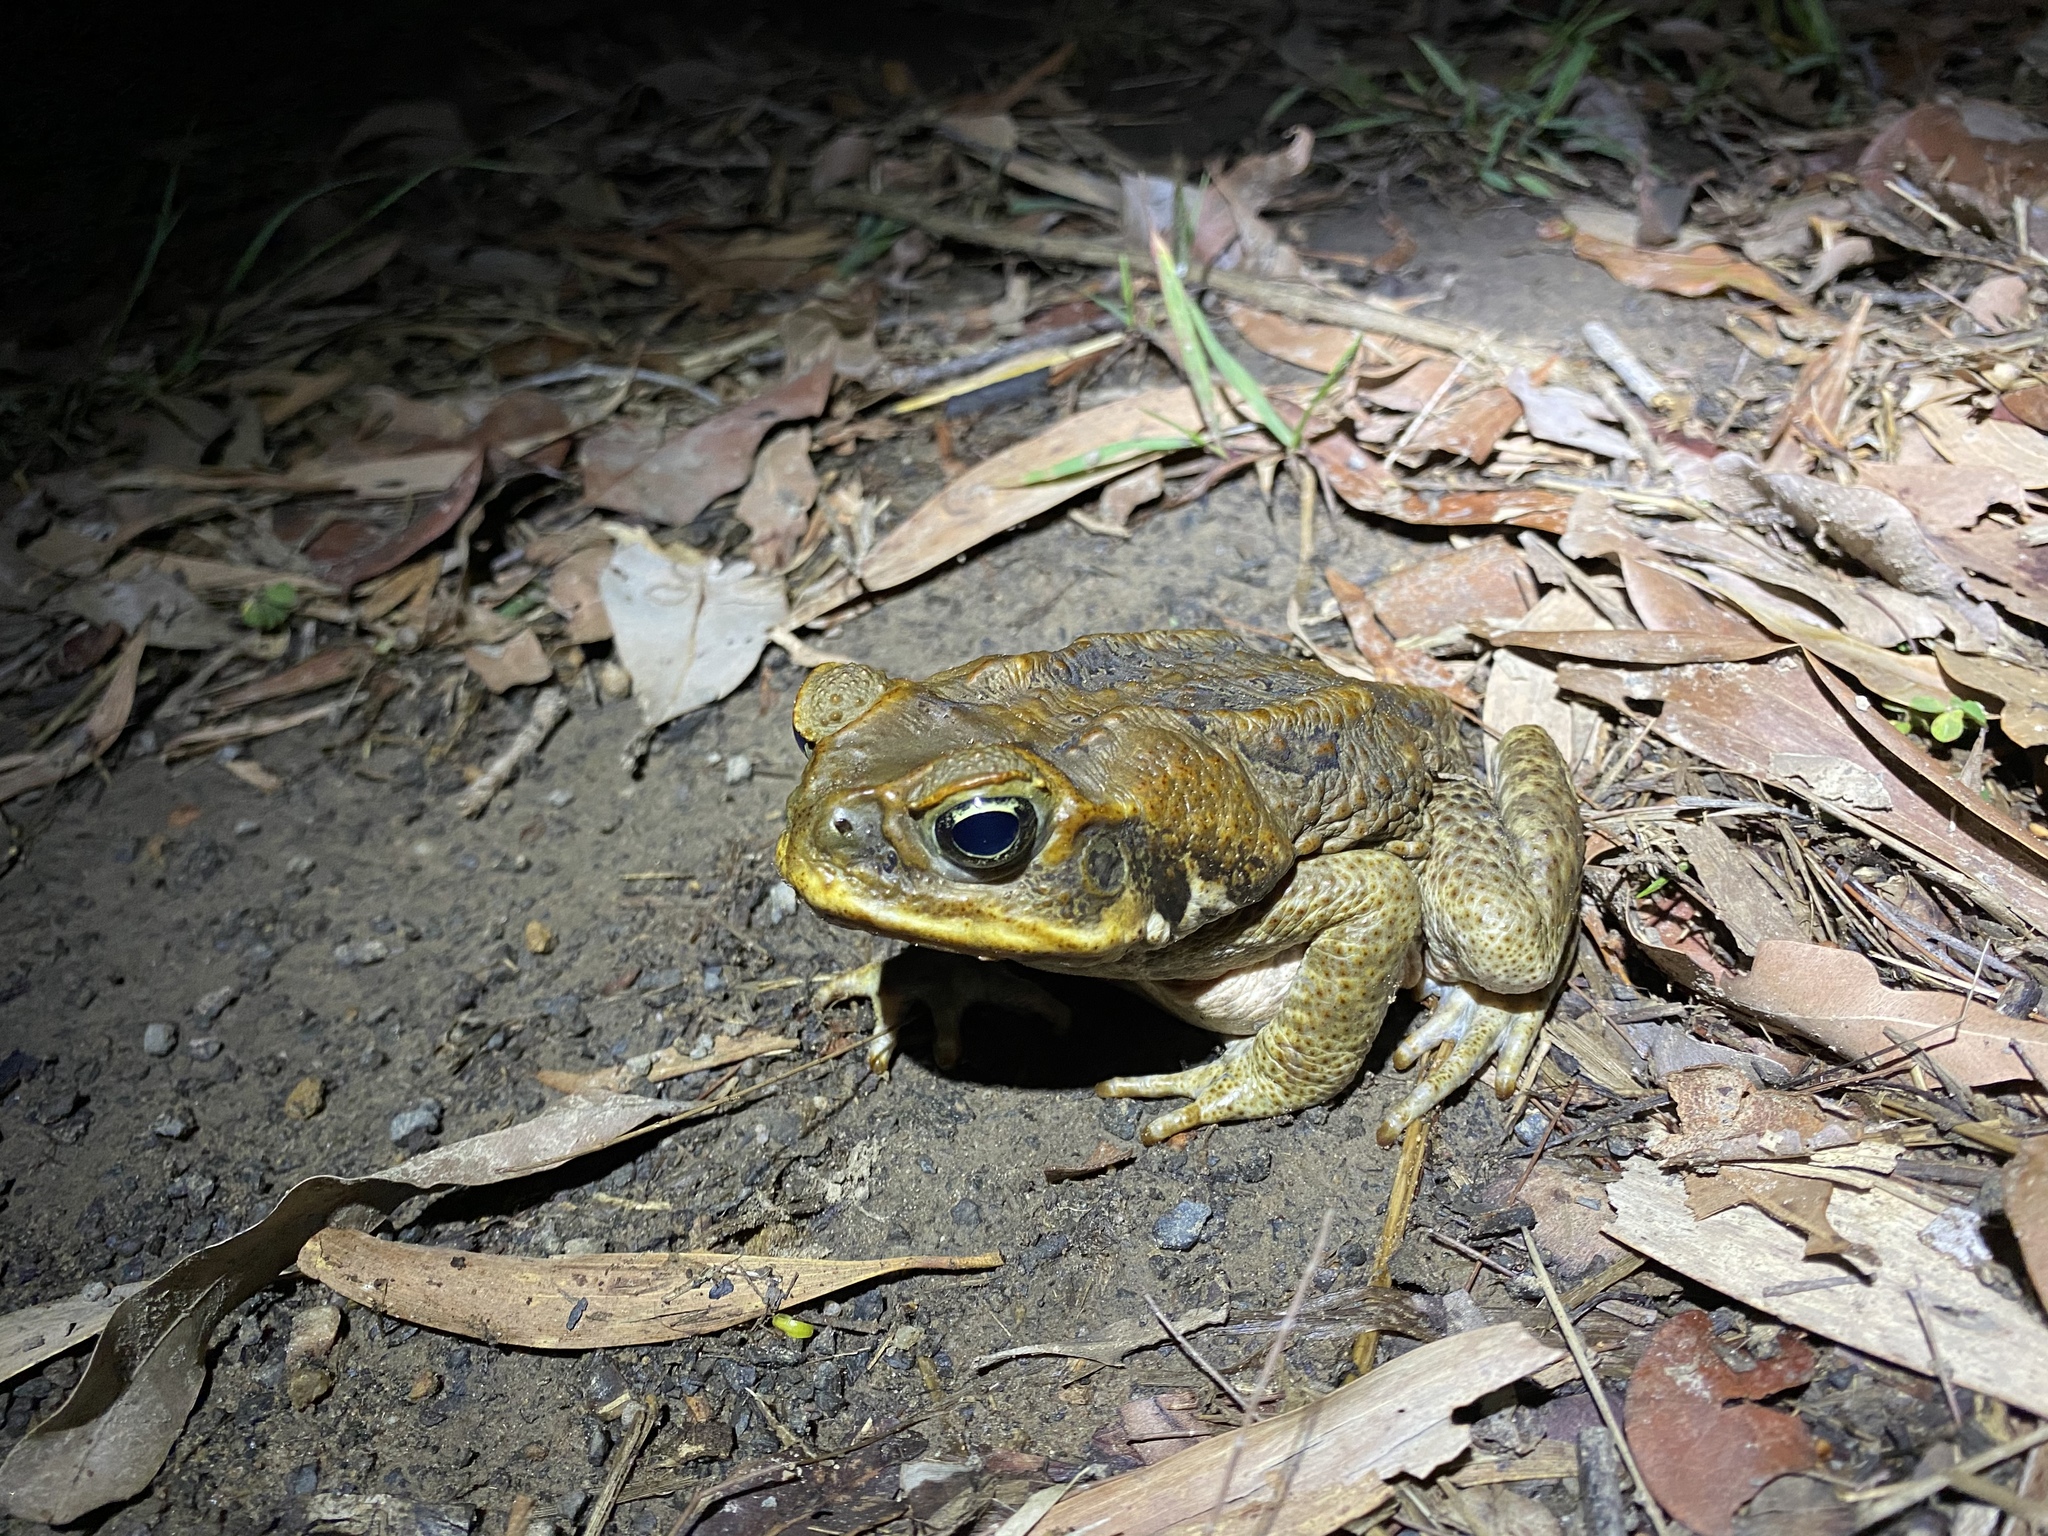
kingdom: Animalia
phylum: Chordata
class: Amphibia
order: Anura
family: Bufonidae
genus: Rhinella
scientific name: Rhinella marina
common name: Cane toad
